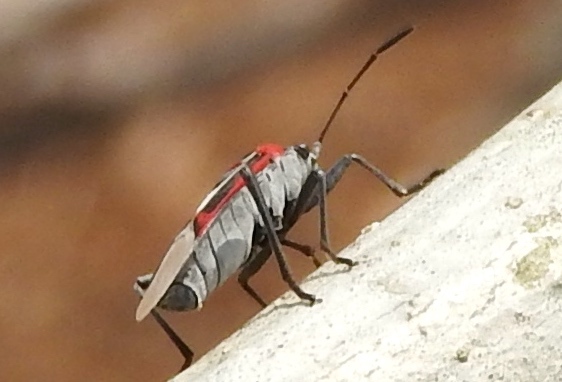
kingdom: Animalia
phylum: Arthropoda
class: Insecta
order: Hemiptera
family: Lygaeidae
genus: Anochrostomus
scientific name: Anochrostomus formosus
